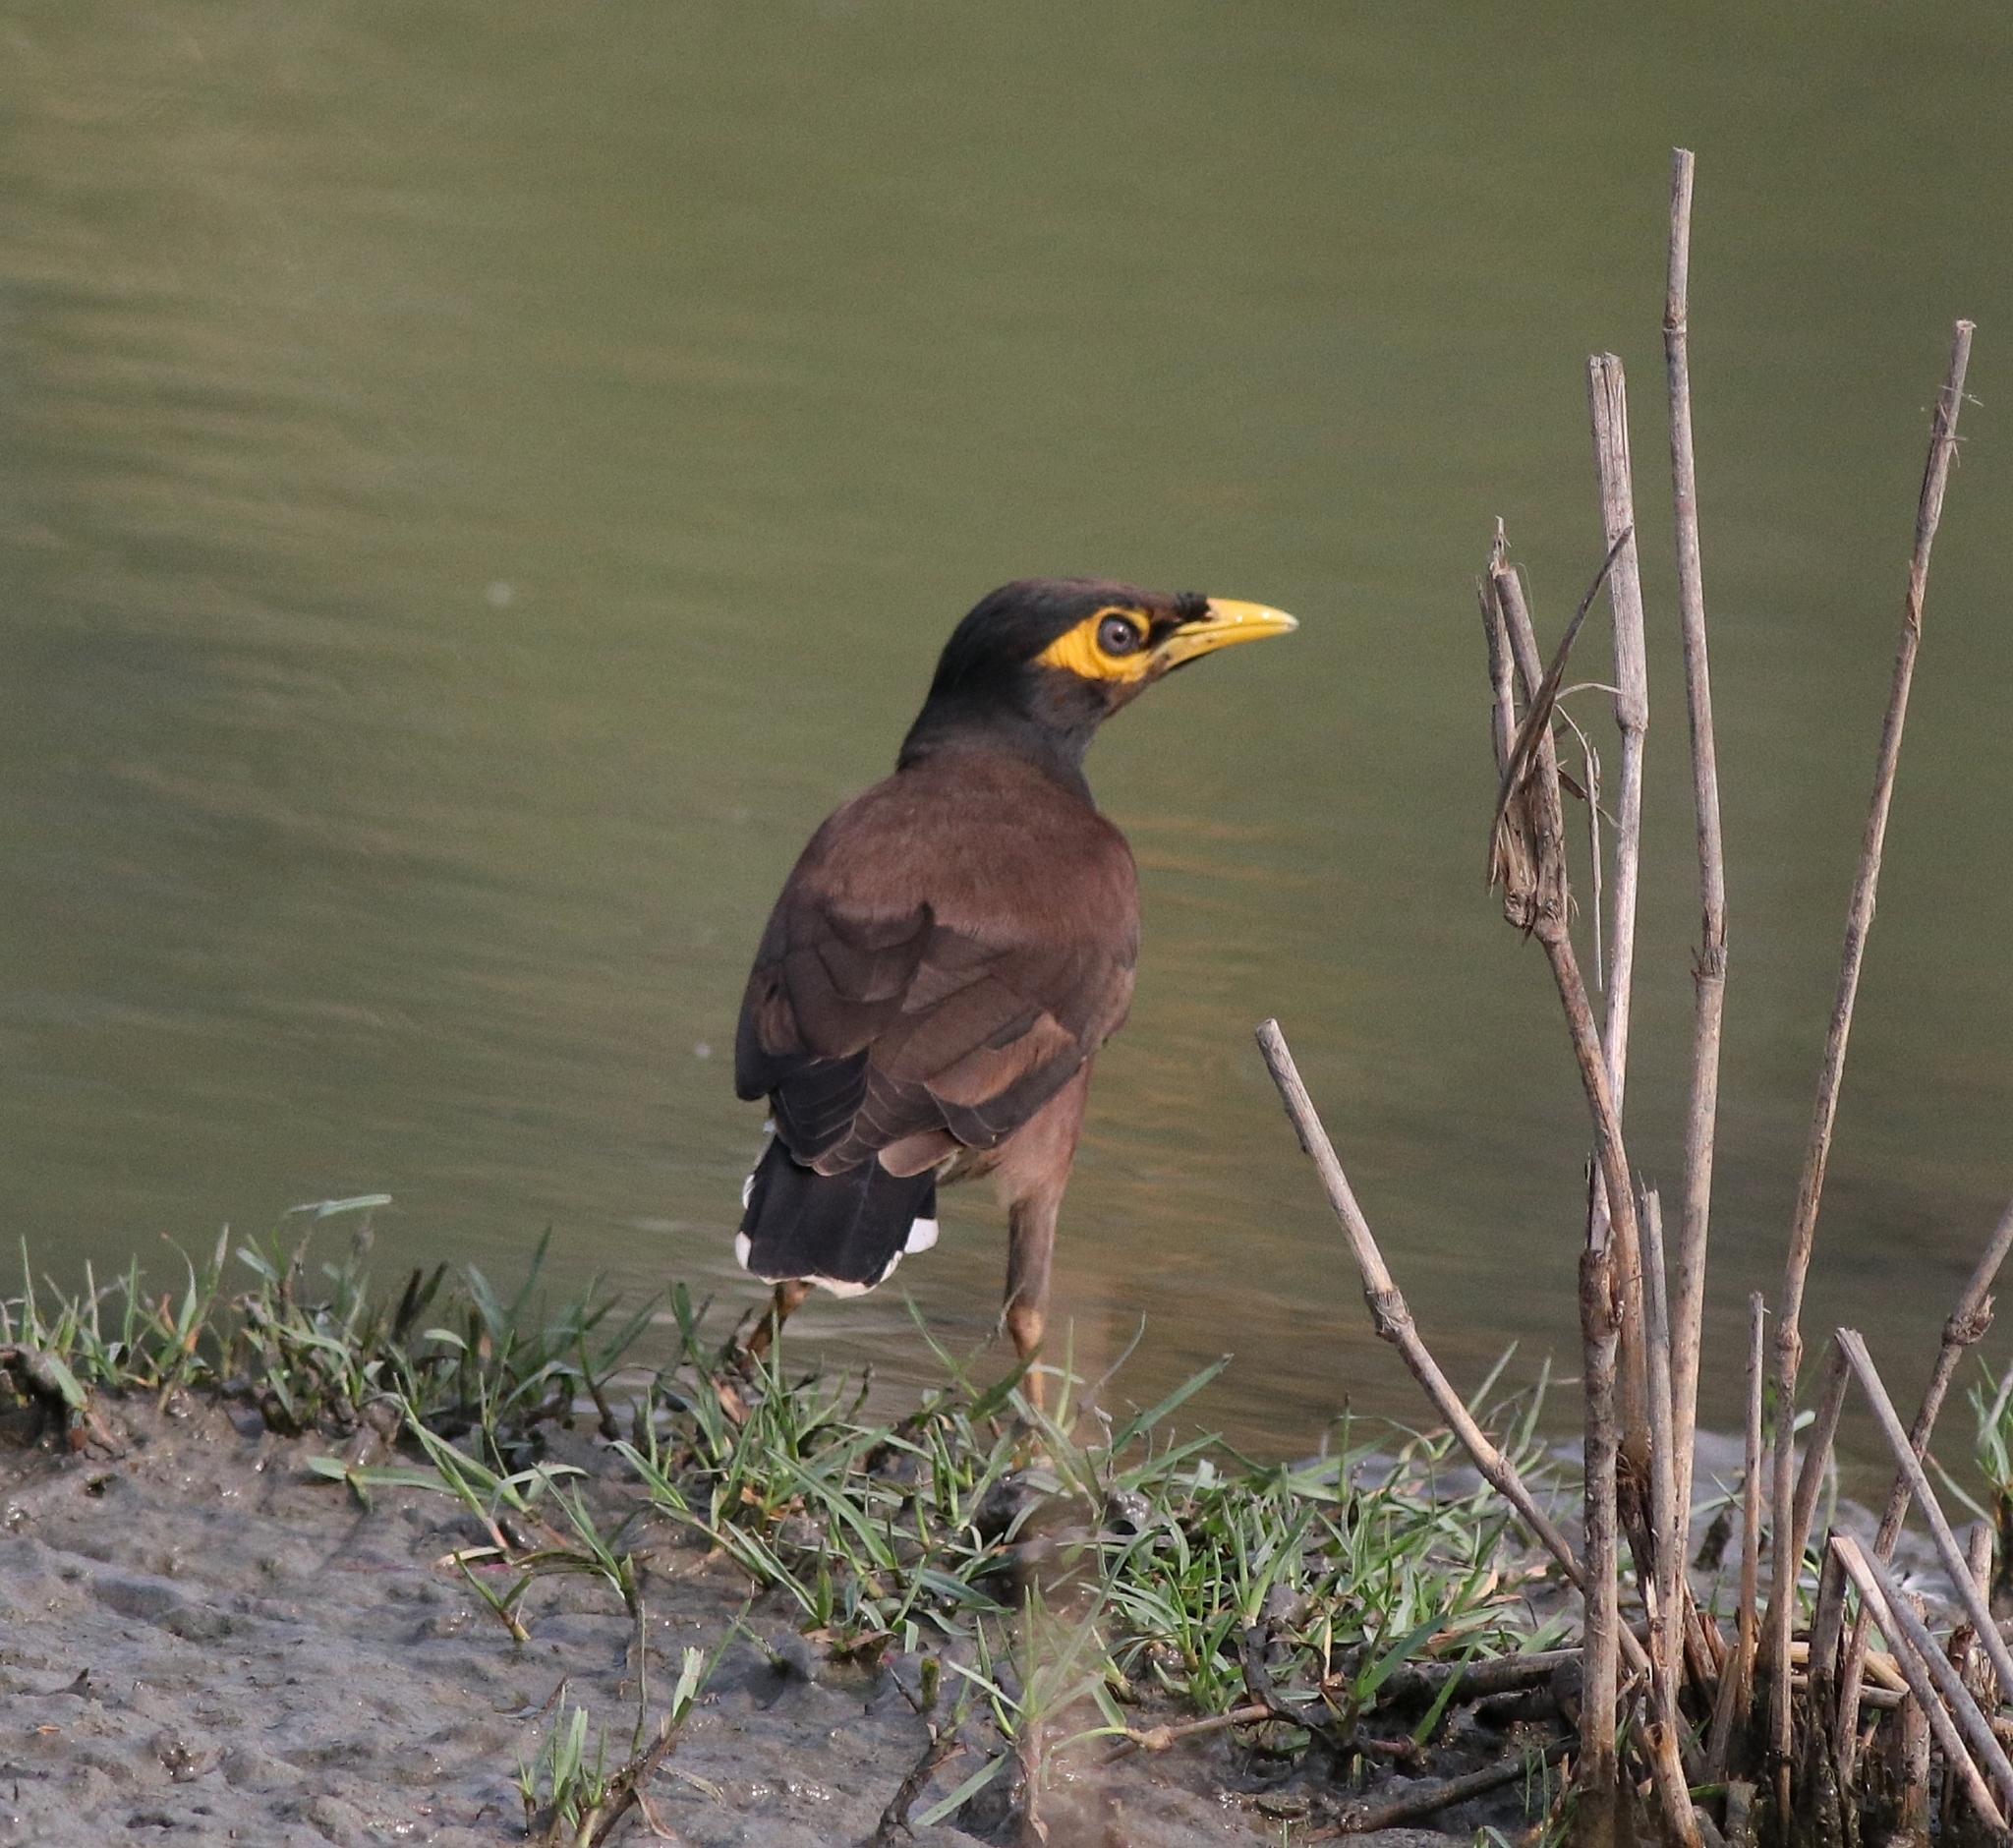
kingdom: Animalia
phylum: Chordata
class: Aves
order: Passeriformes
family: Sturnidae
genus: Acridotheres
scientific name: Acridotheres tristis
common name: Common myna
